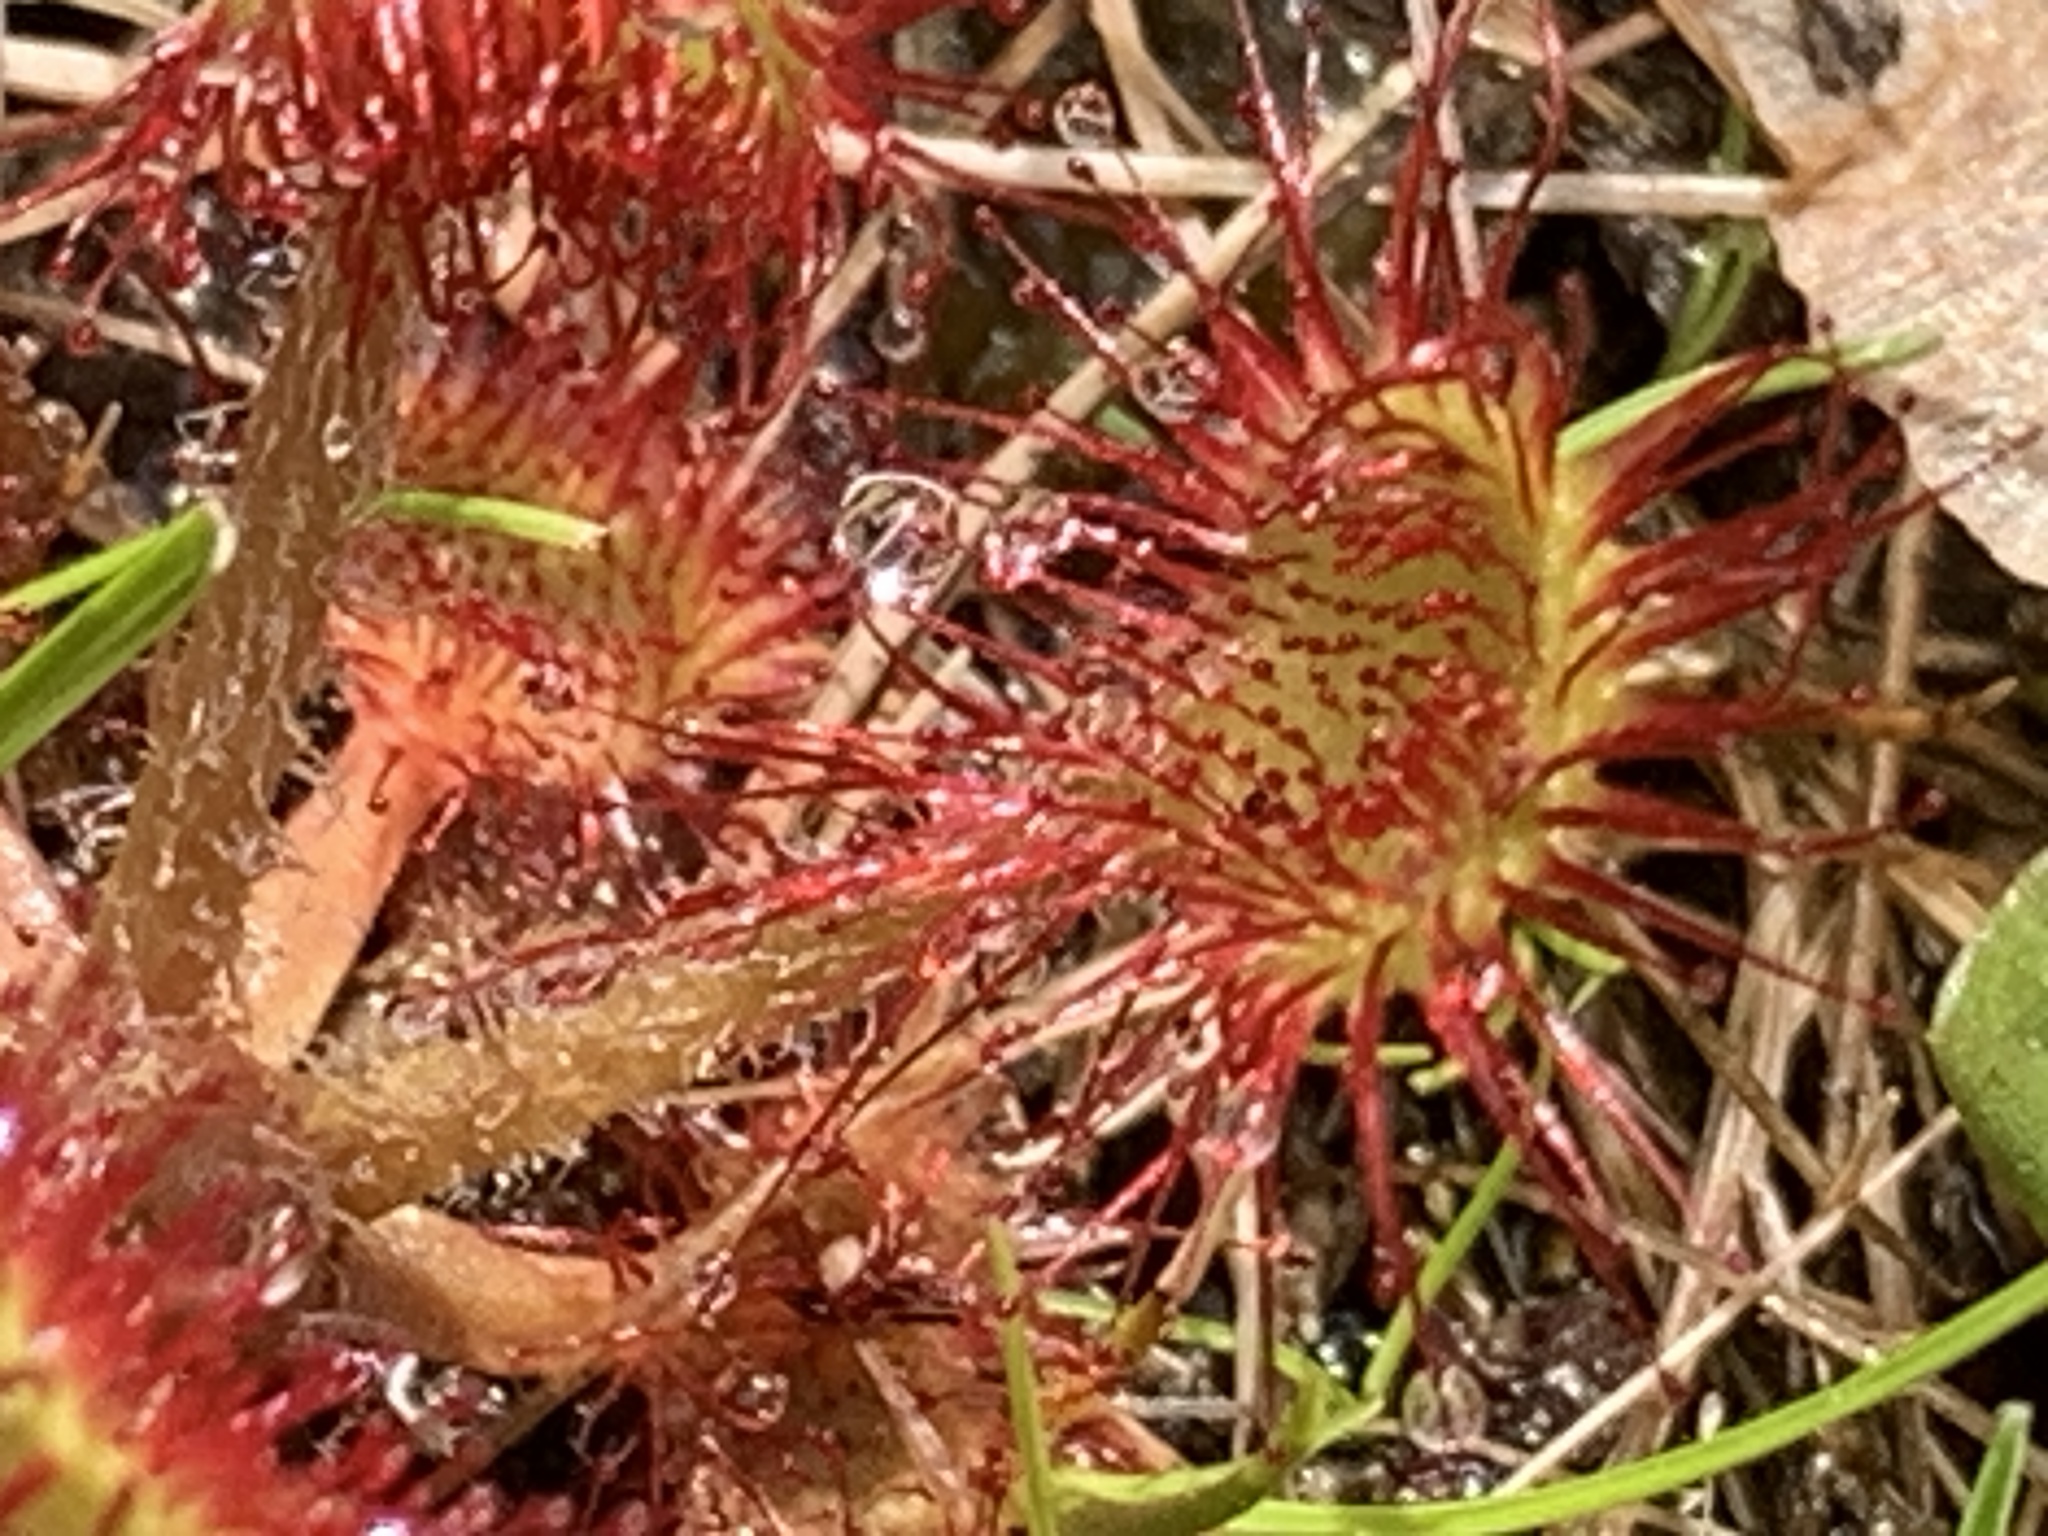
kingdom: Plantae
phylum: Tracheophyta
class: Magnoliopsida
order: Caryophyllales
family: Droseraceae
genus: Drosera
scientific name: Drosera rotundifolia
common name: Round-leaved sundew
